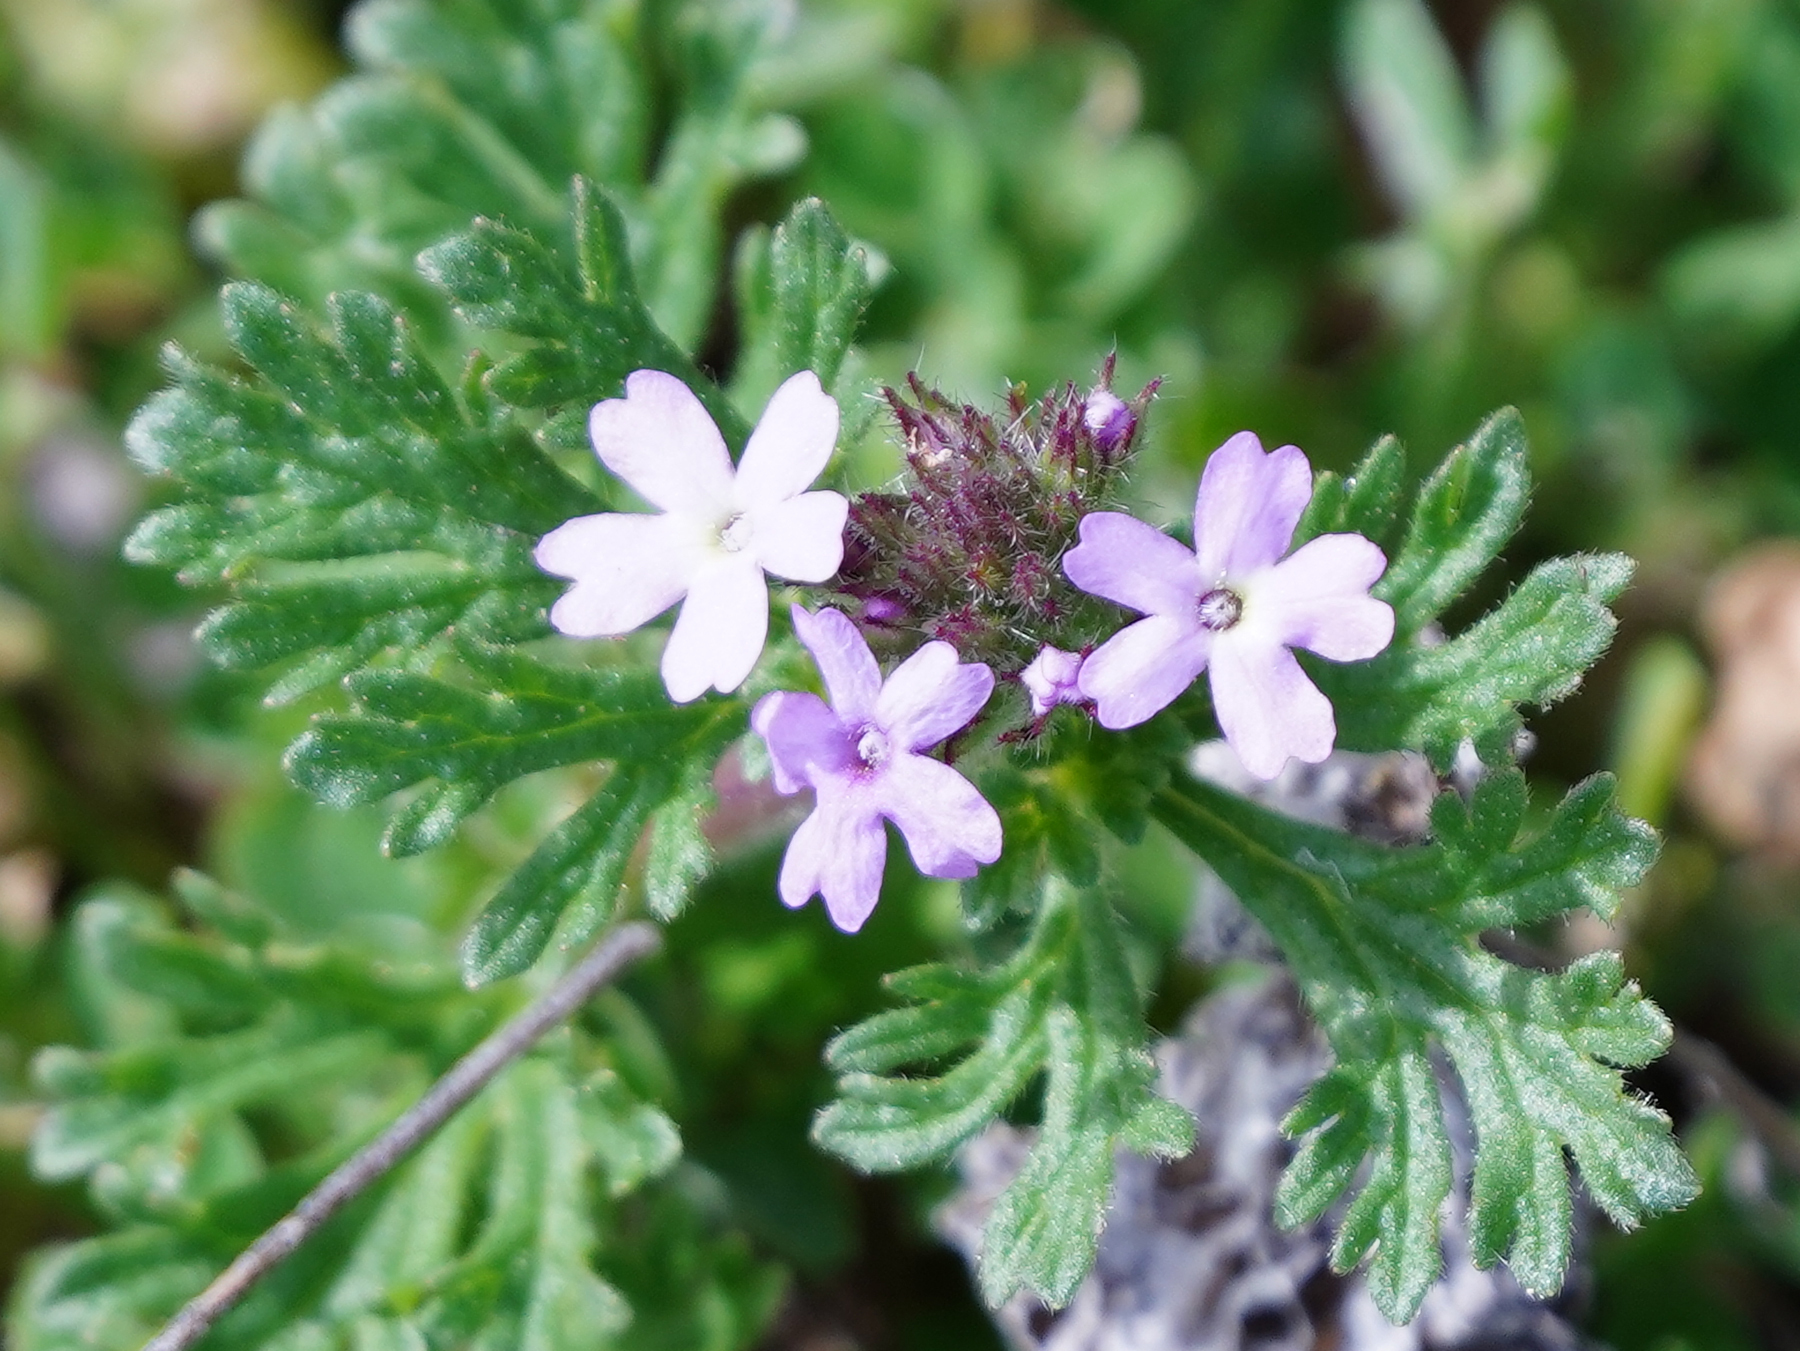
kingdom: Plantae
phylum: Tracheophyta
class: Magnoliopsida
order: Lamiales
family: Verbenaceae
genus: Verbena
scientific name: Verbena pumila
